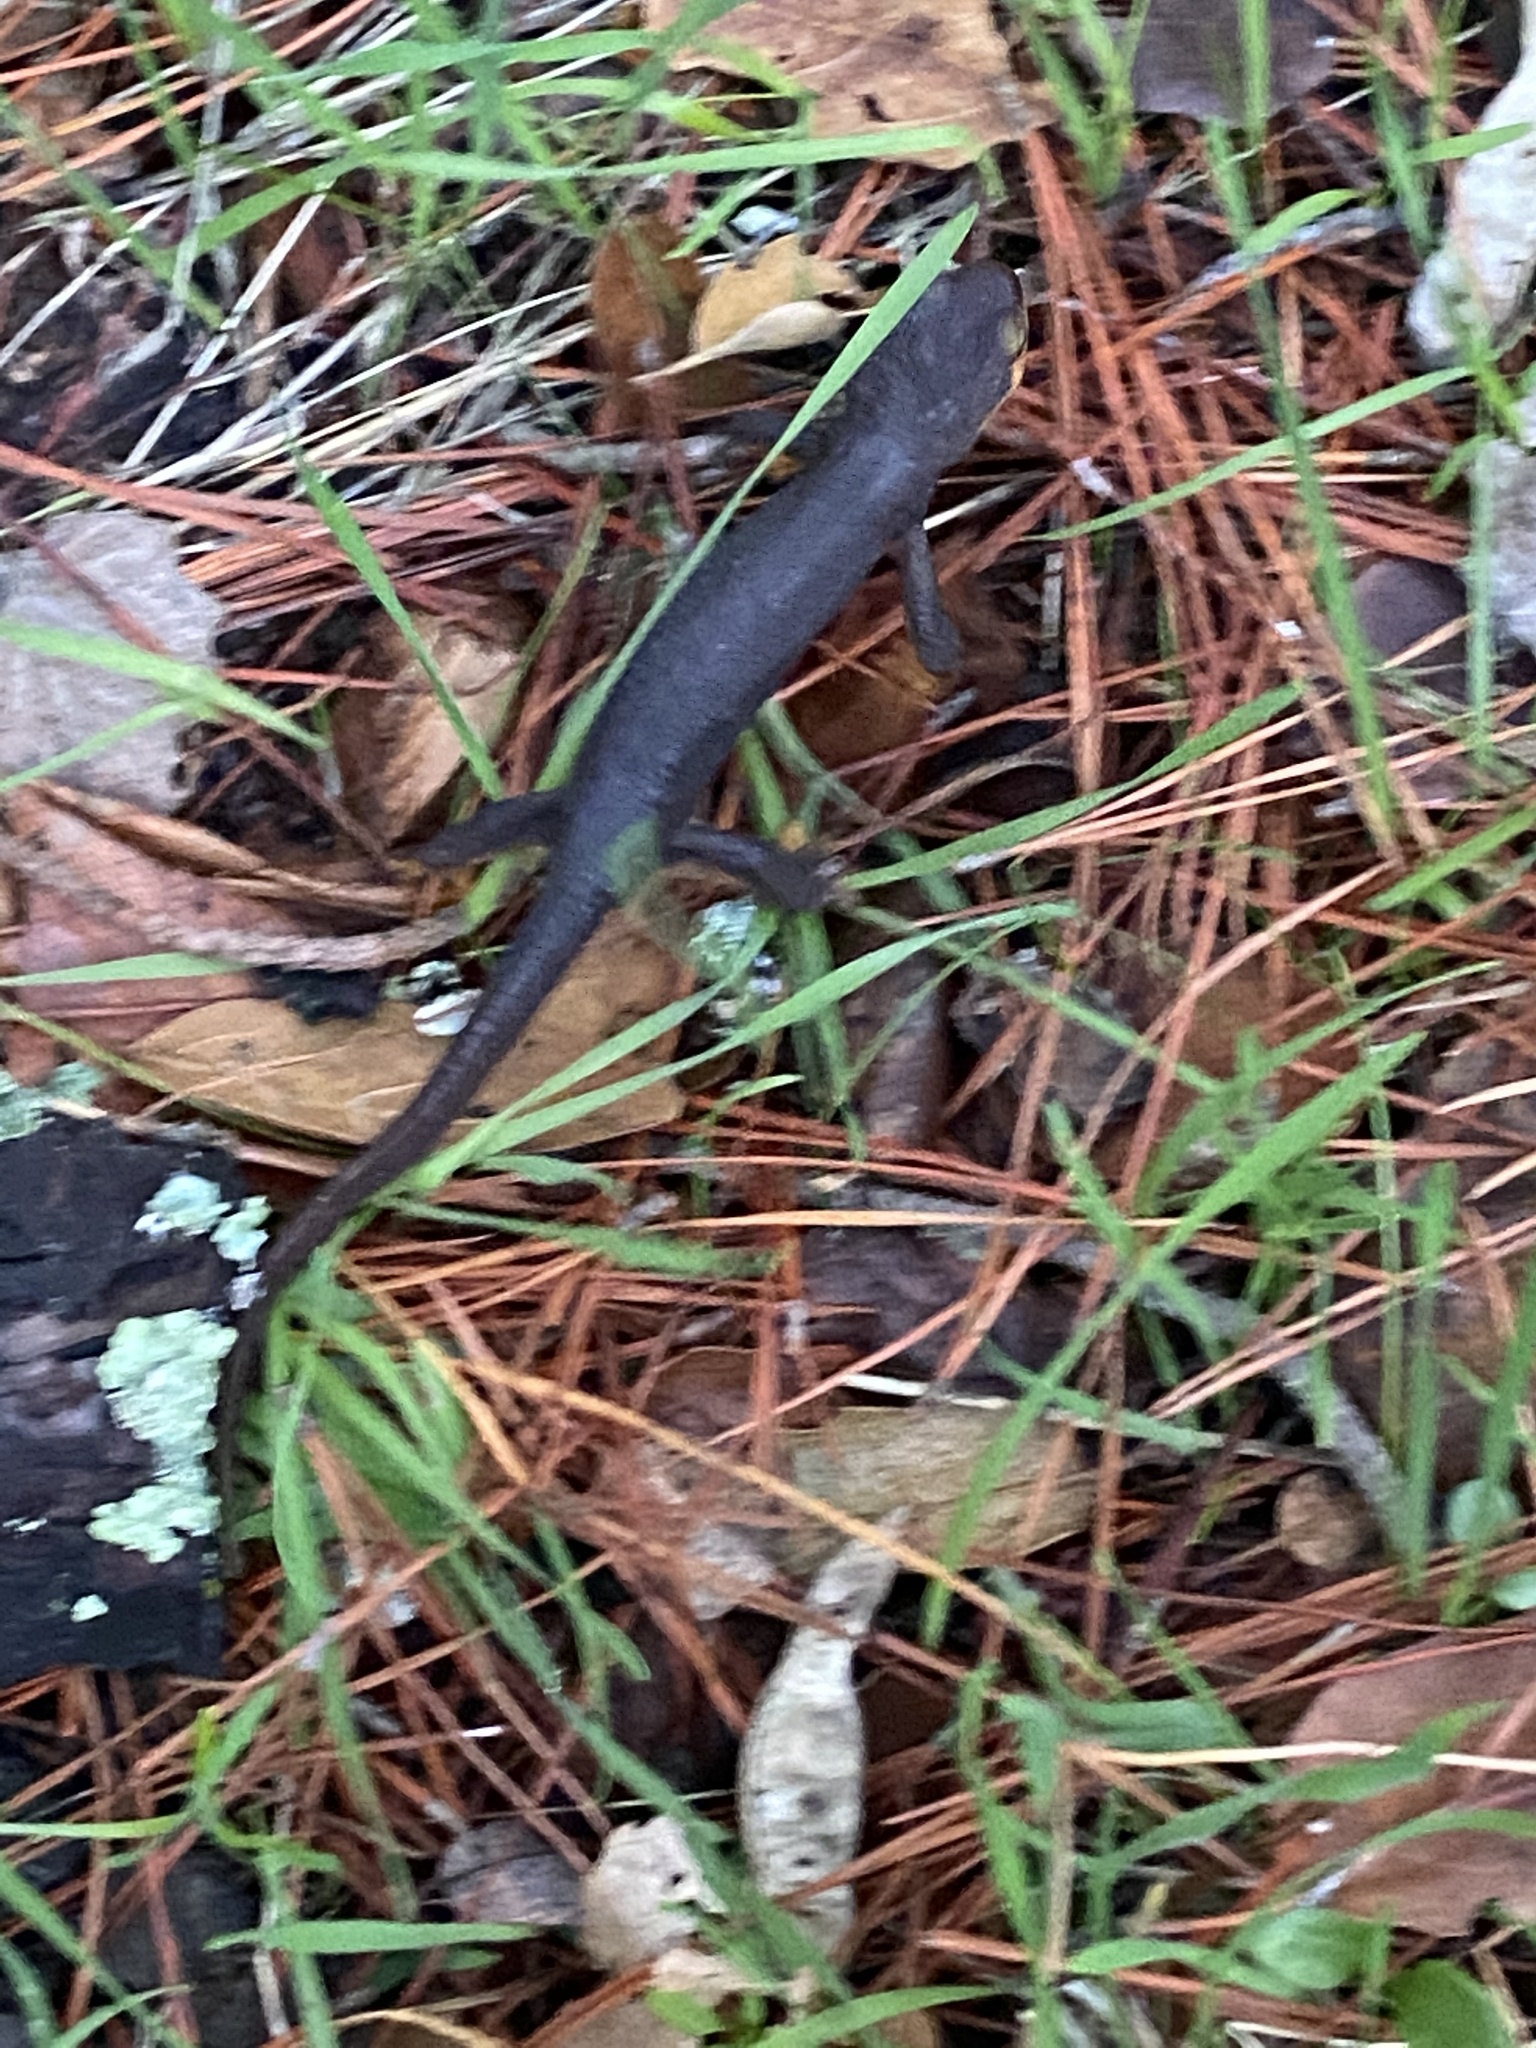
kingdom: Animalia
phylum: Chordata
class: Amphibia
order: Caudata
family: Salamandridae
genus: Taricha
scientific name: Taricha torosa
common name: California newt
